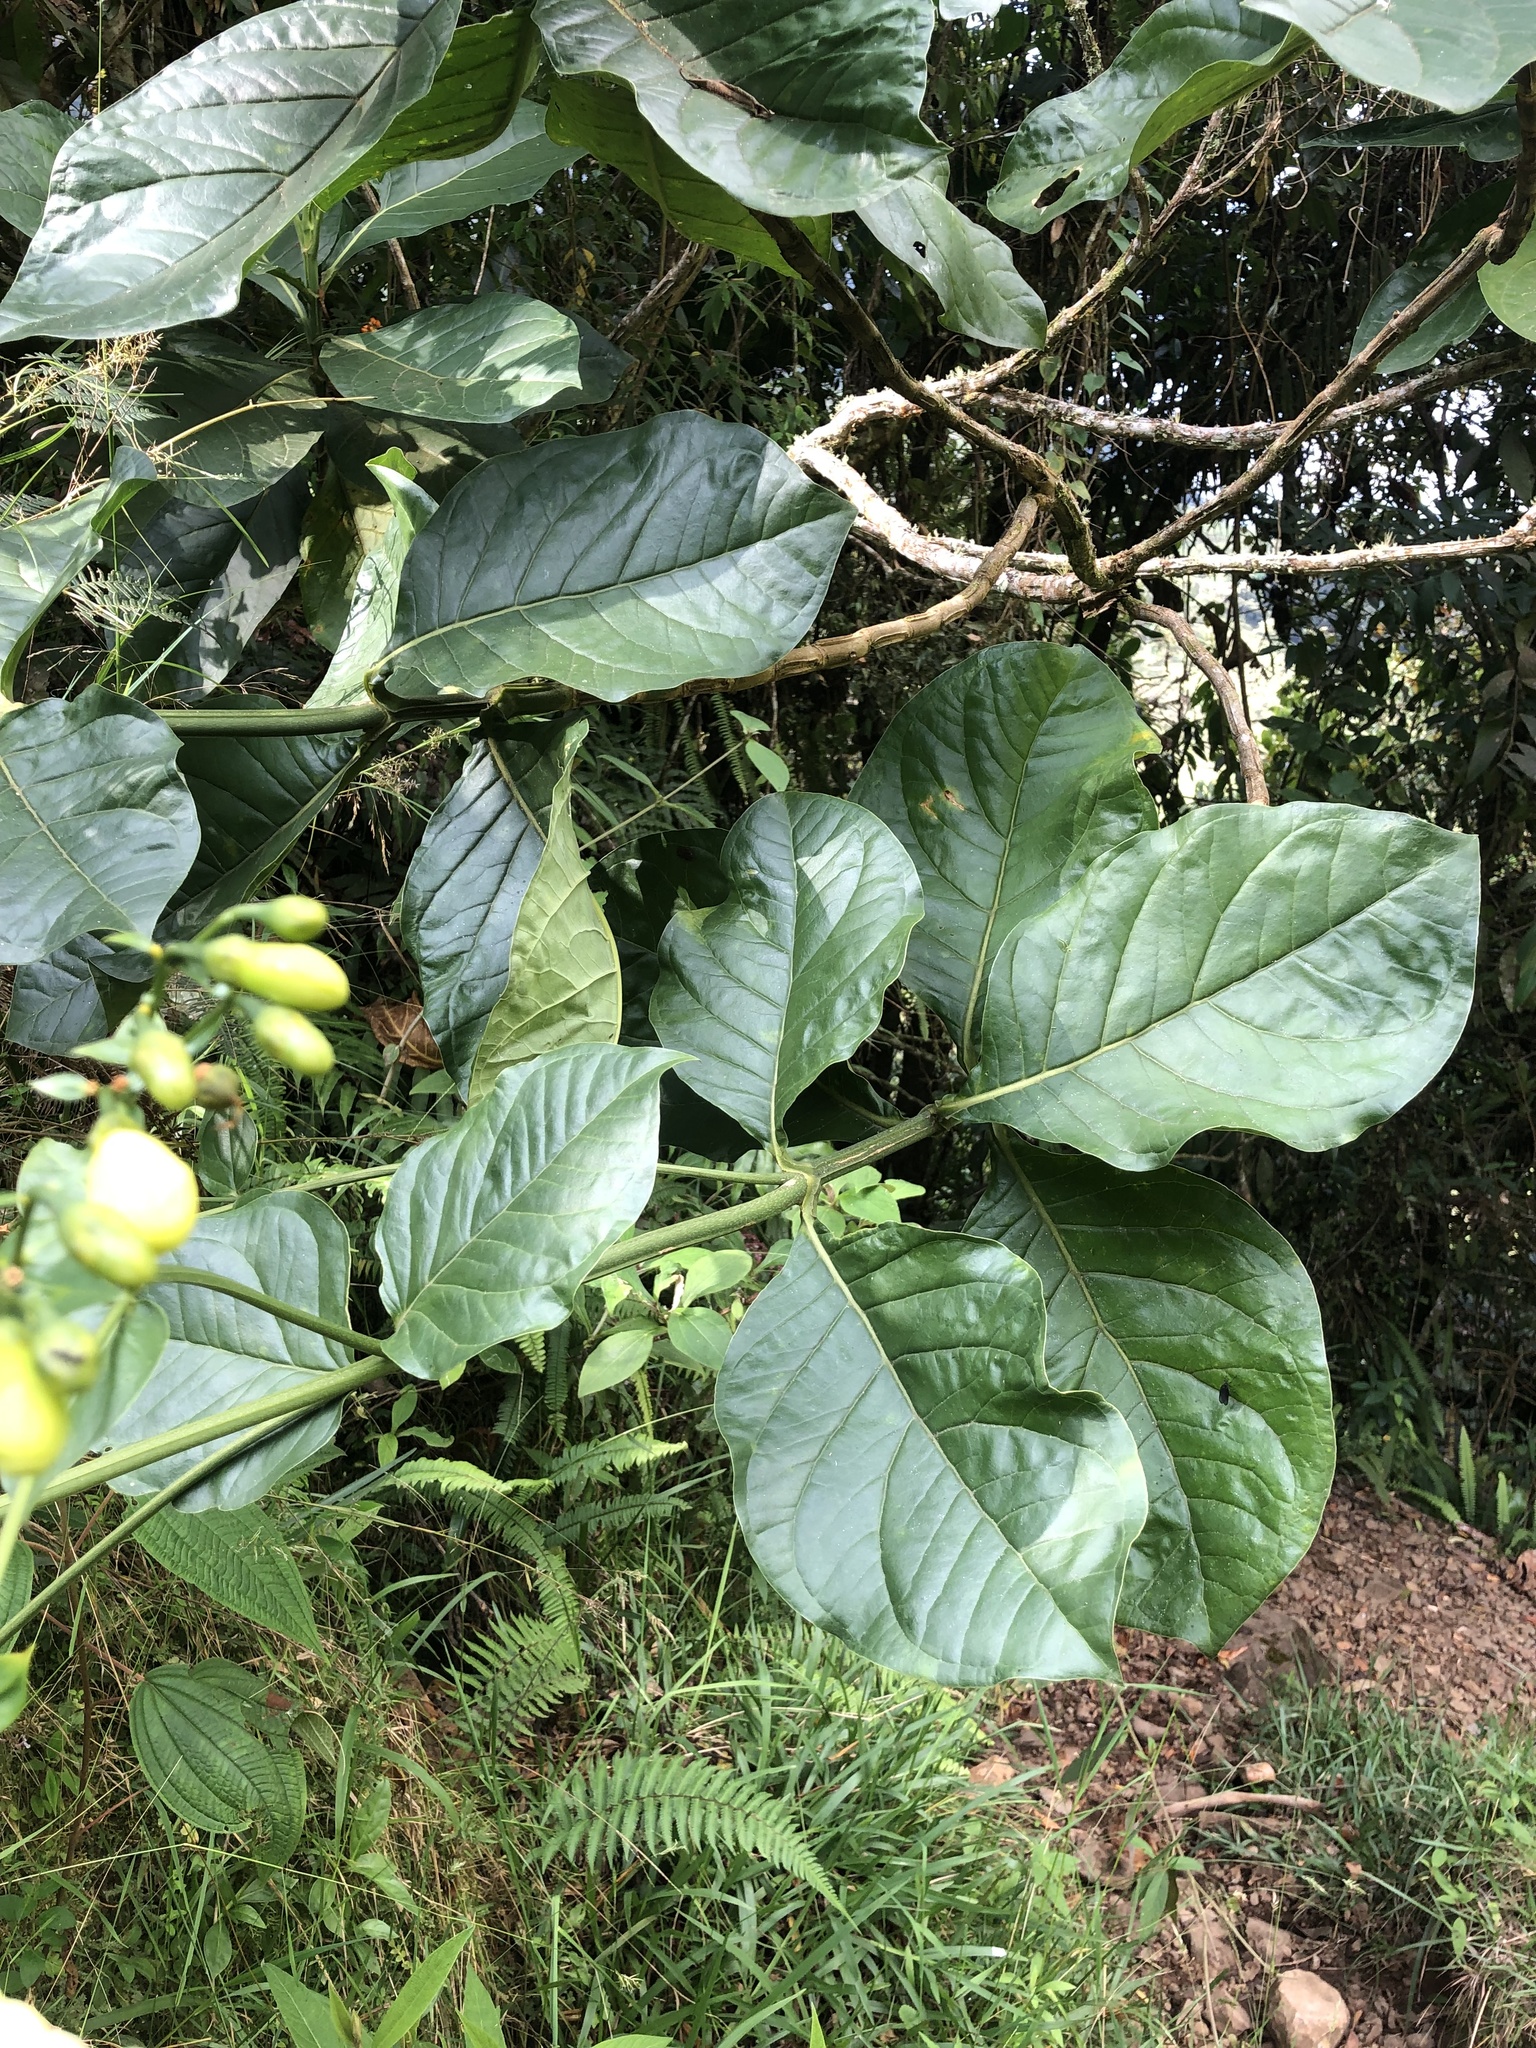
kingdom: Plantae
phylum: Tracheophyta
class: Magnoliopsida
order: Gentianales
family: Gentianaceae
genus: Macrocarpaea
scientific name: Macrocarpaea macrophylla
